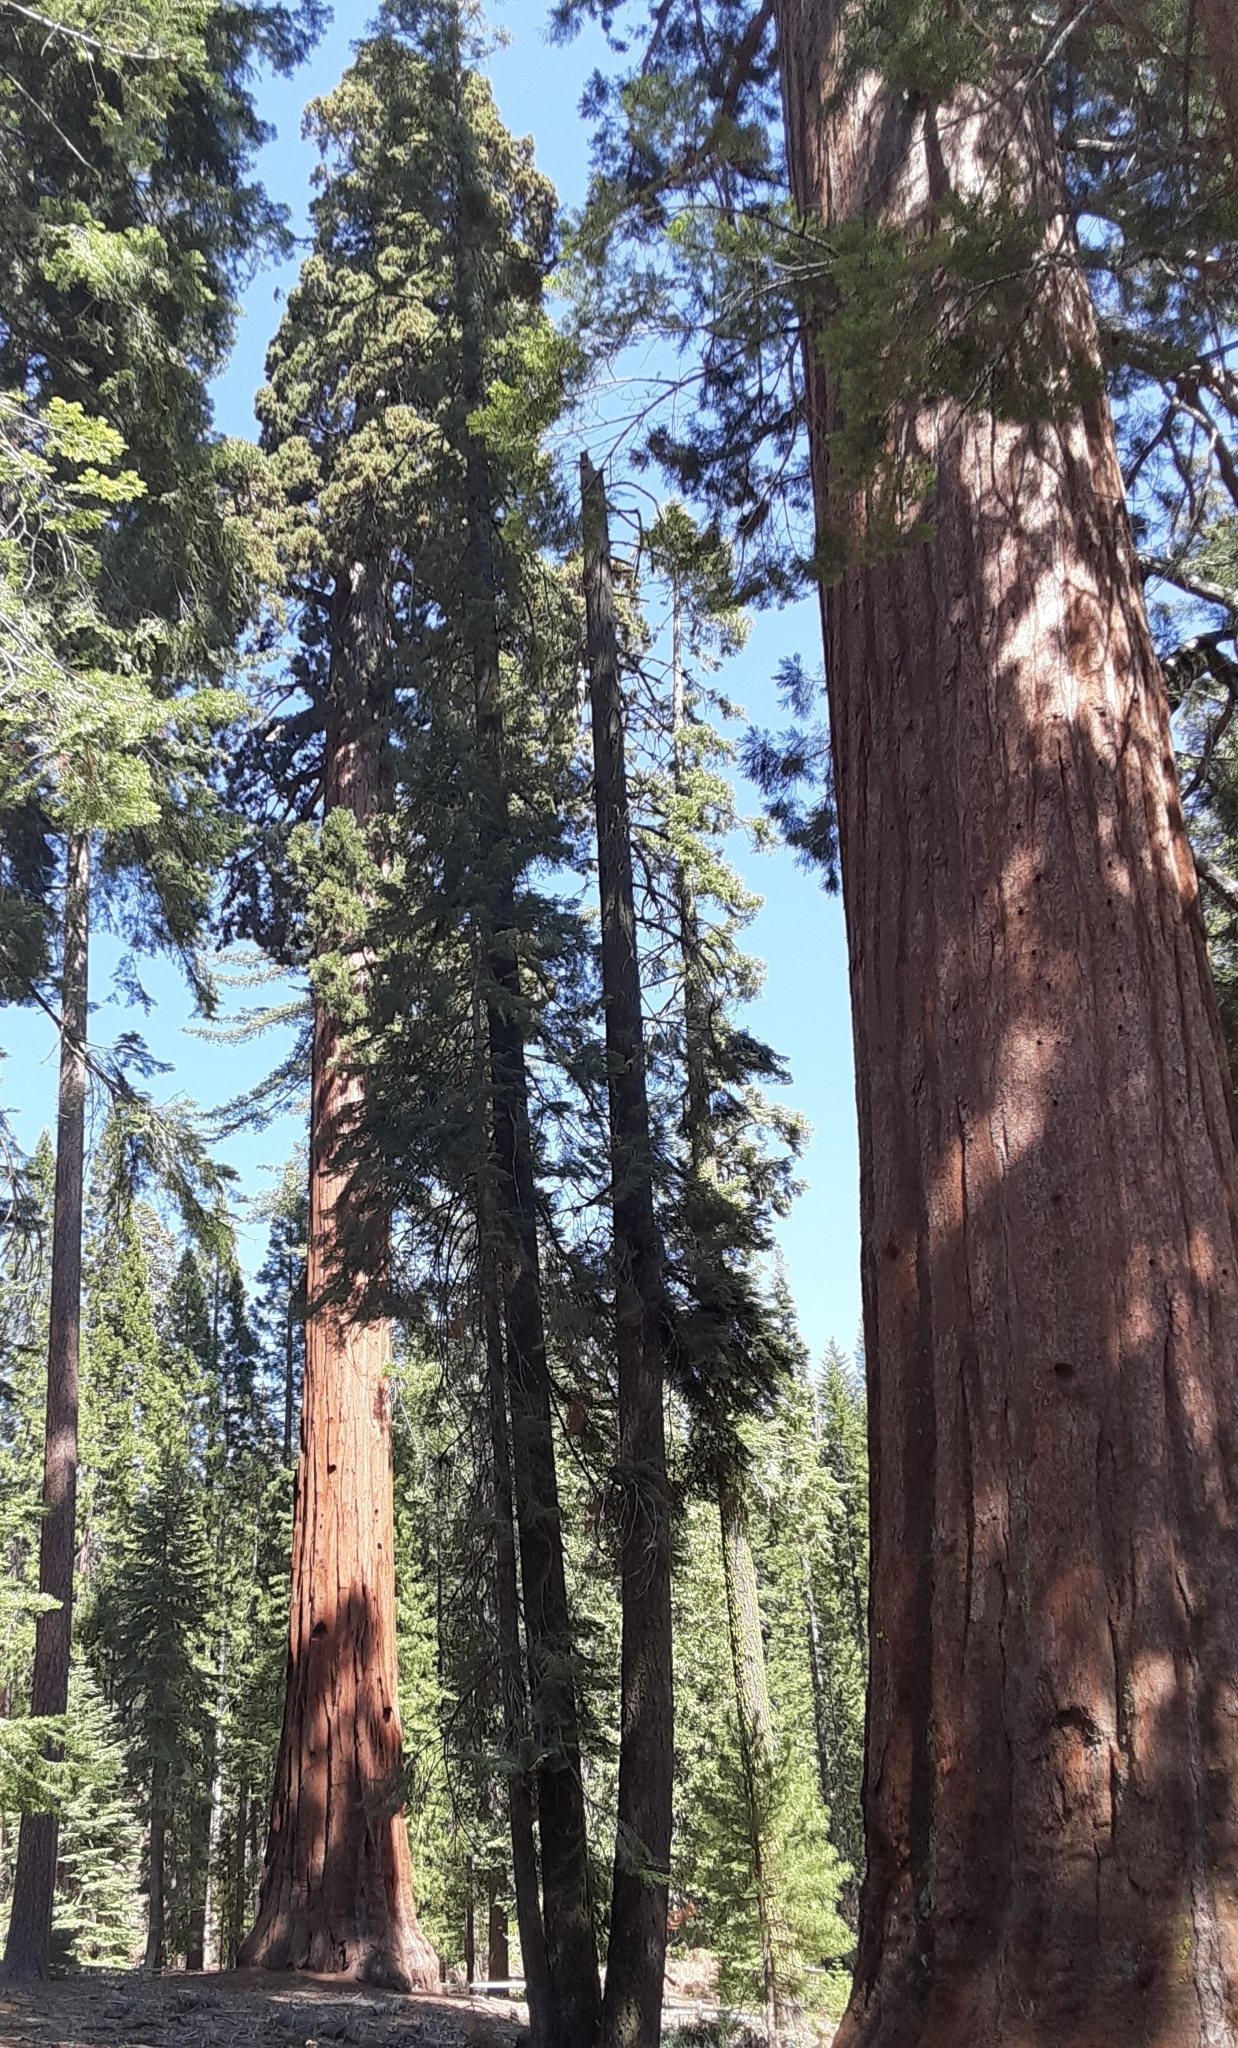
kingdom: Plantae
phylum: Tracheophyta
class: Pinopsida
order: Pinales
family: Cupressaceae
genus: Sequoiadendron
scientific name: Sequoiadendron giganteum
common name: Wellingtonia
